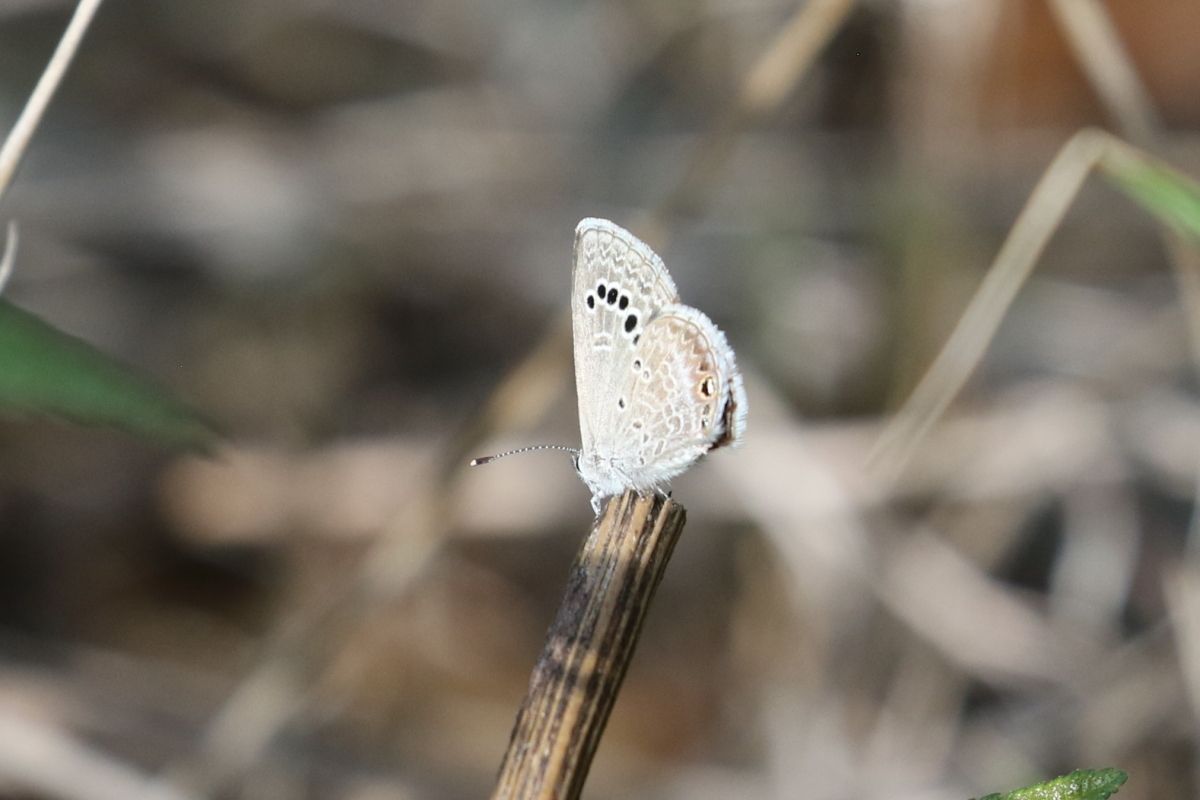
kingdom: Animalia
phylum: Arthropoda
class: Insecta
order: Lepidoptera
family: Lycaenidae
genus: Echinargus
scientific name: Echinargus isola
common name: Reakirt's blue
